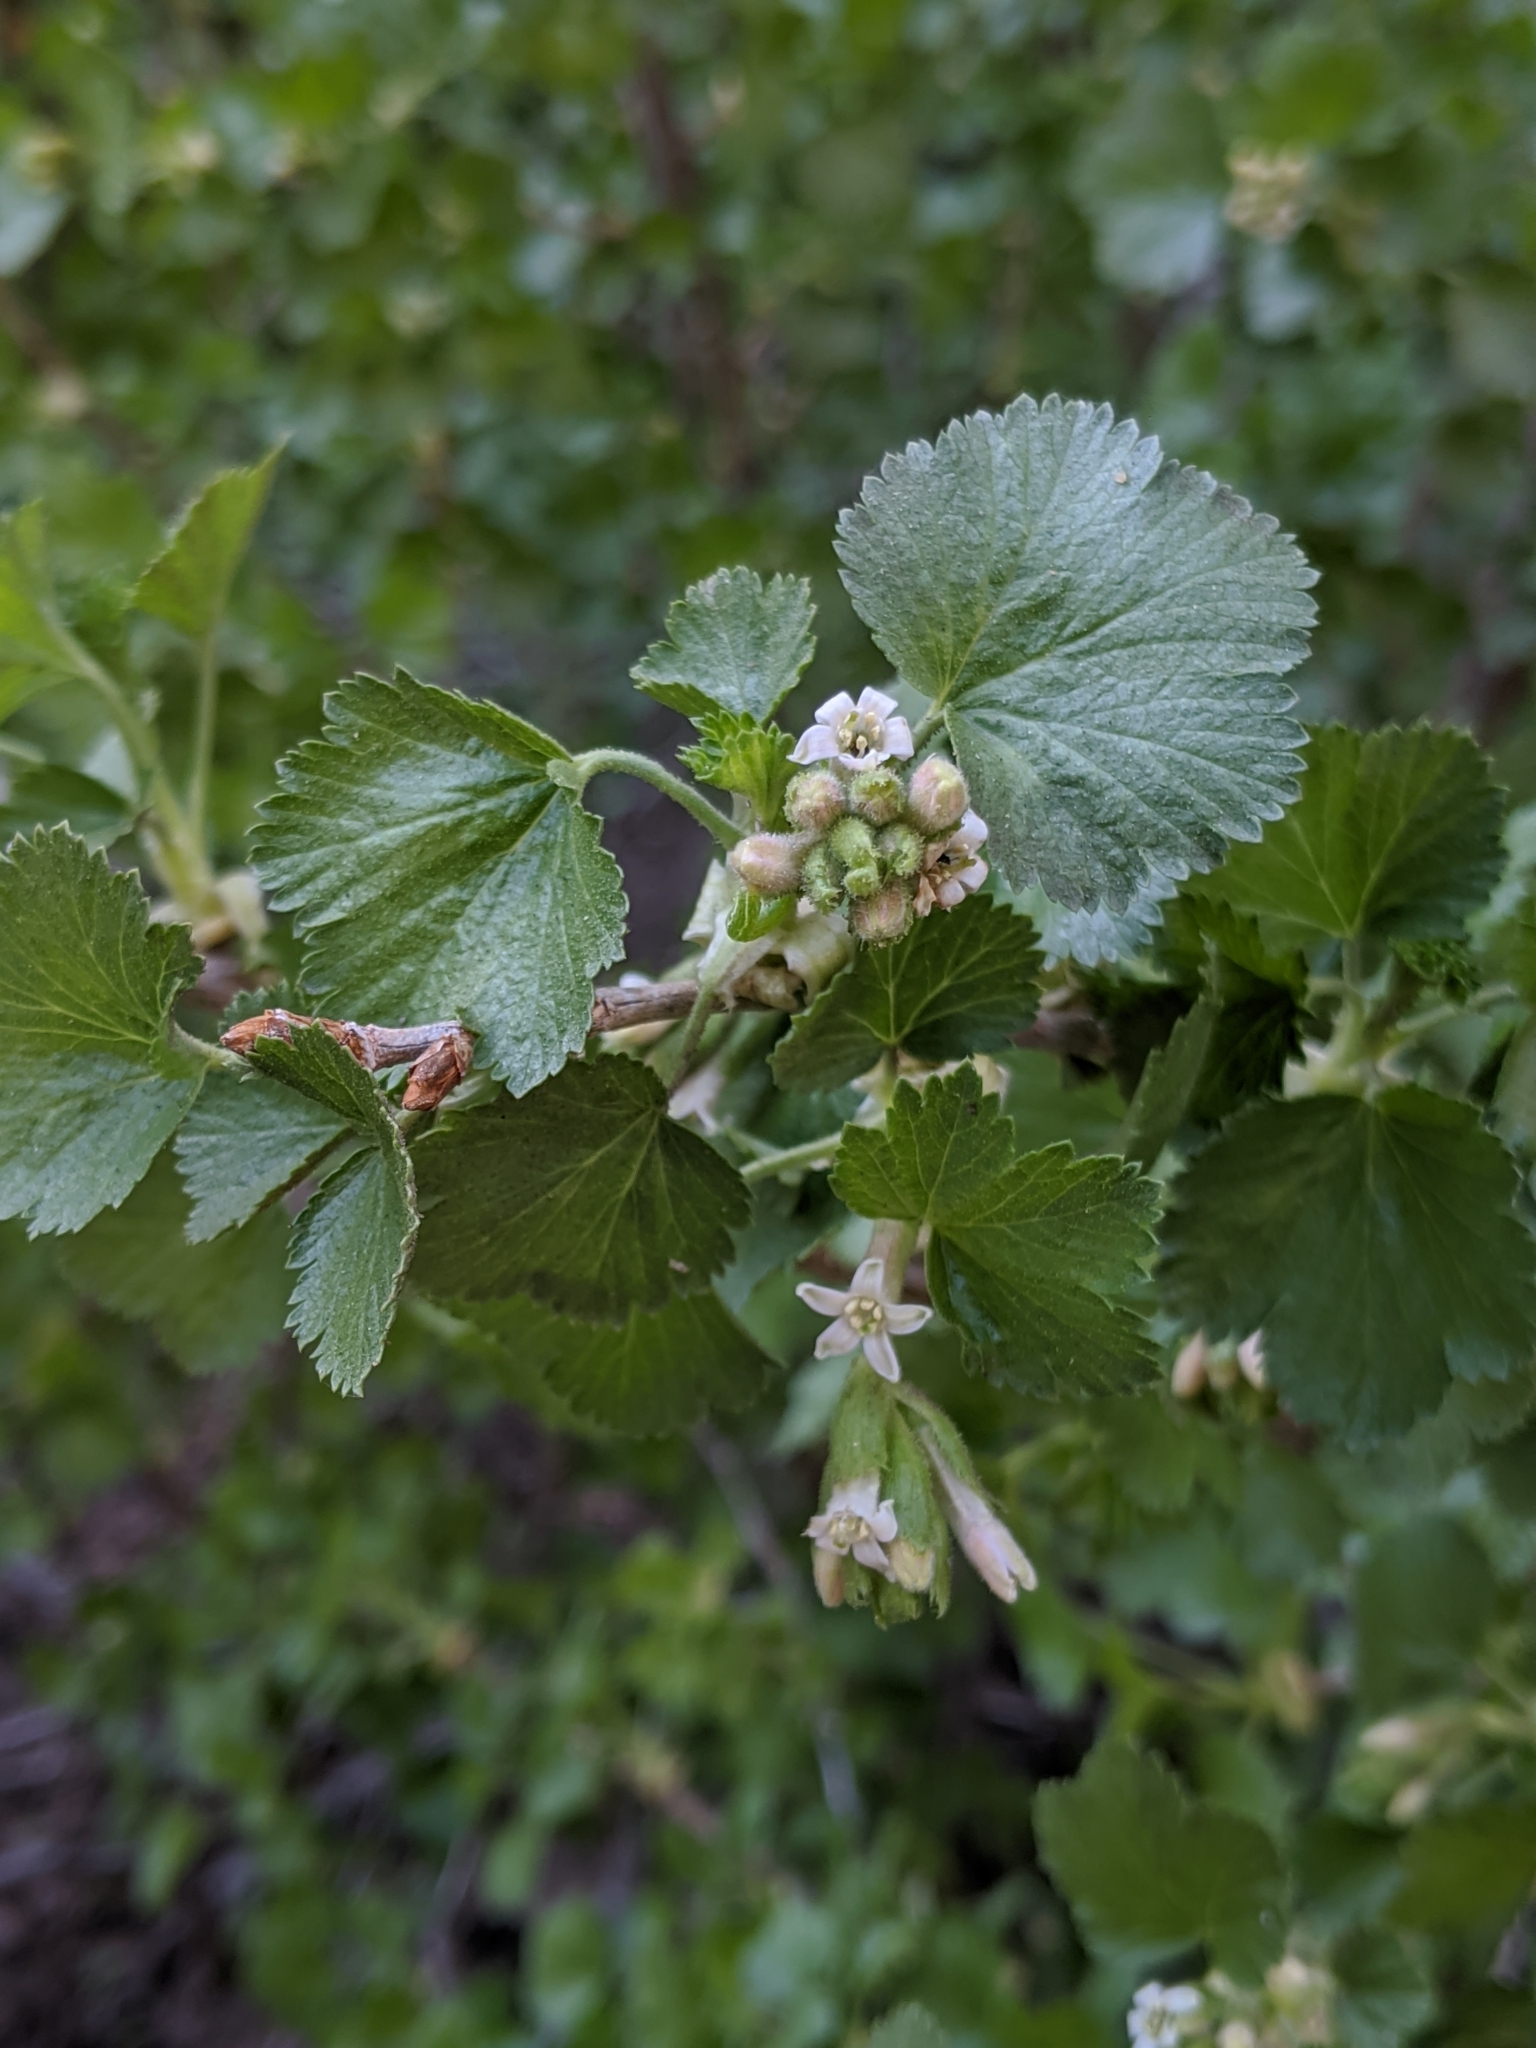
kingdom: Plantae
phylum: Tracheophyta
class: Magnoliopsida
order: Saxifragales
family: Grossulariaceae
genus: Ribes
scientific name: Ribes cereum
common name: Wax currant
